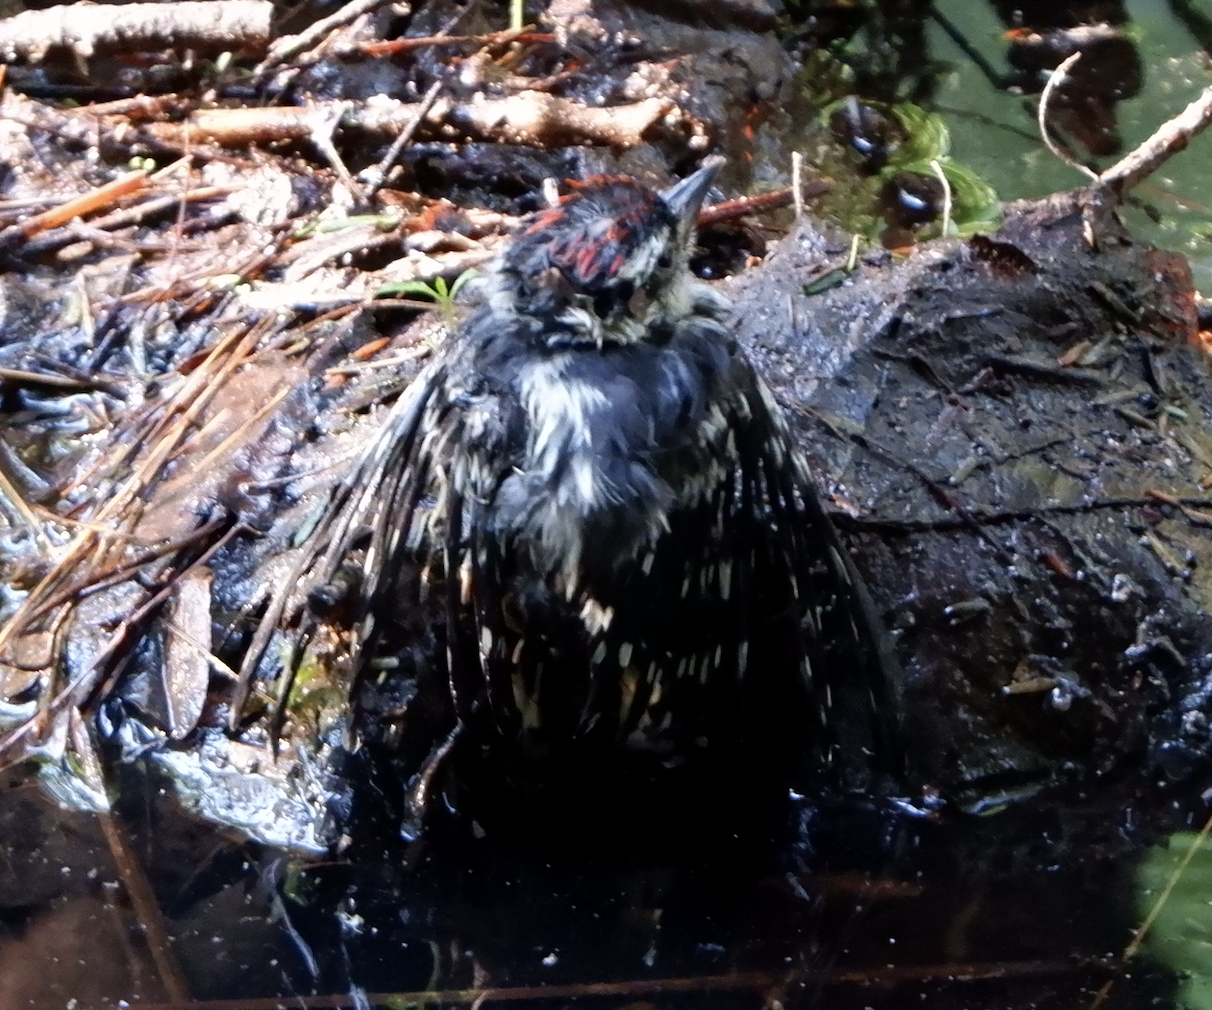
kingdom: Animalia
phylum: Chordata
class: Aves
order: Piciformes
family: Picidae
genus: Dryobates
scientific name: Dryobates pubescens
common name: Downy woodpecker
